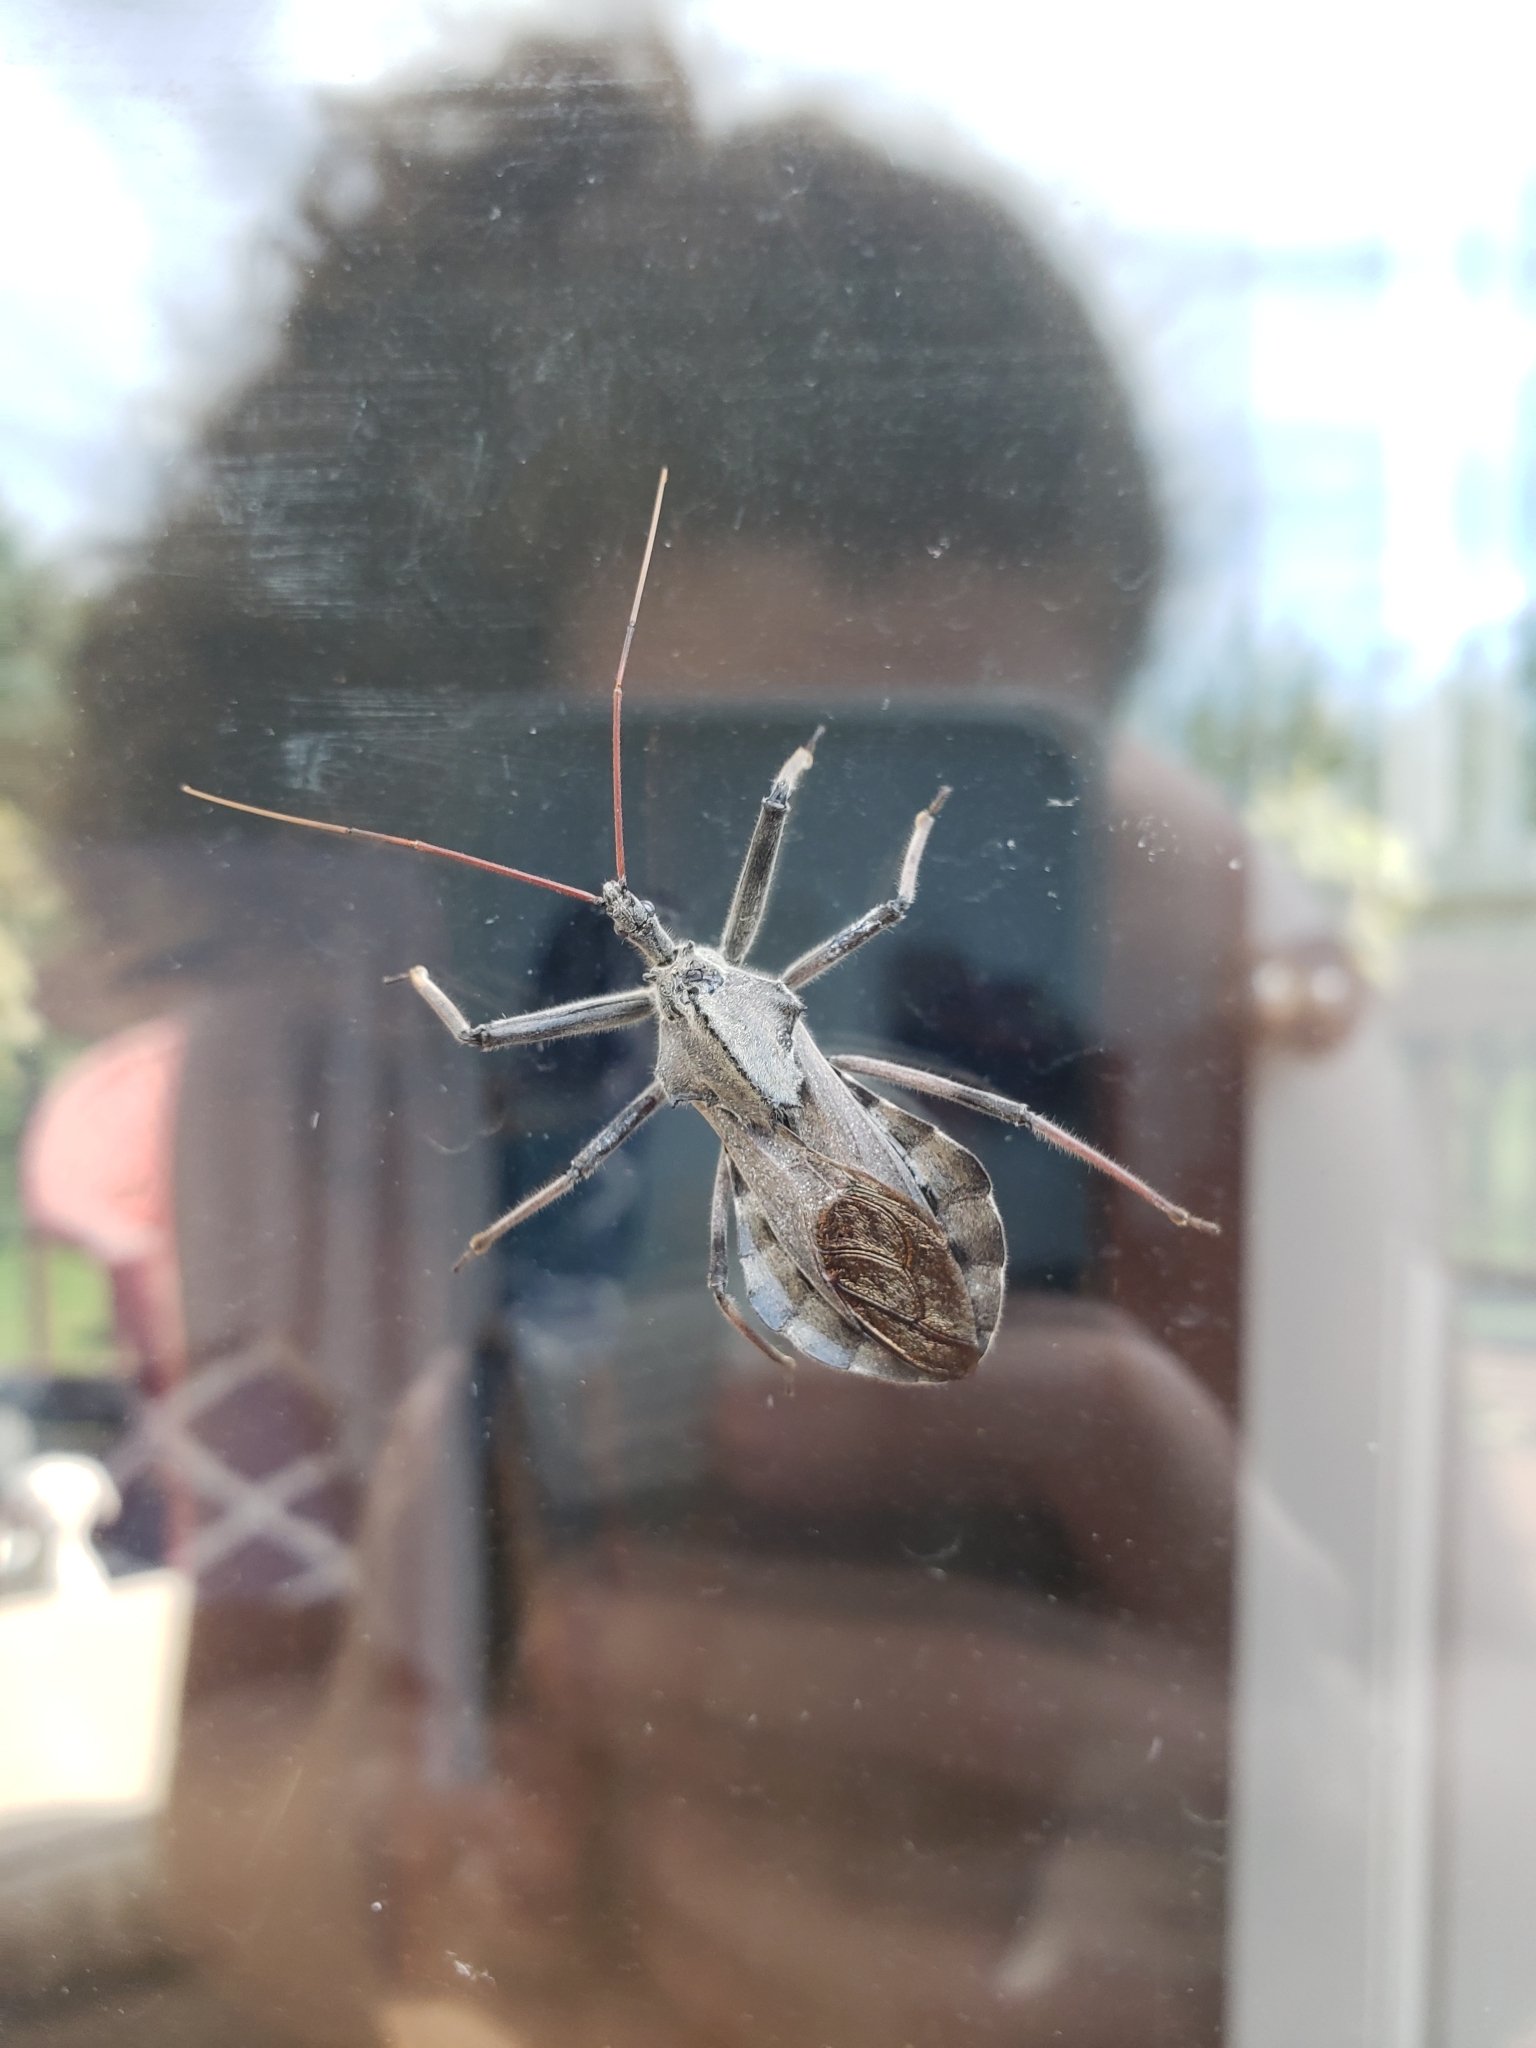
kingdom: Animalia
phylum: Arthropoda
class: Insecta
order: Hemiptera
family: Reduviidae
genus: Arilus
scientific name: Arilus cristatus
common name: North american wheel bug
